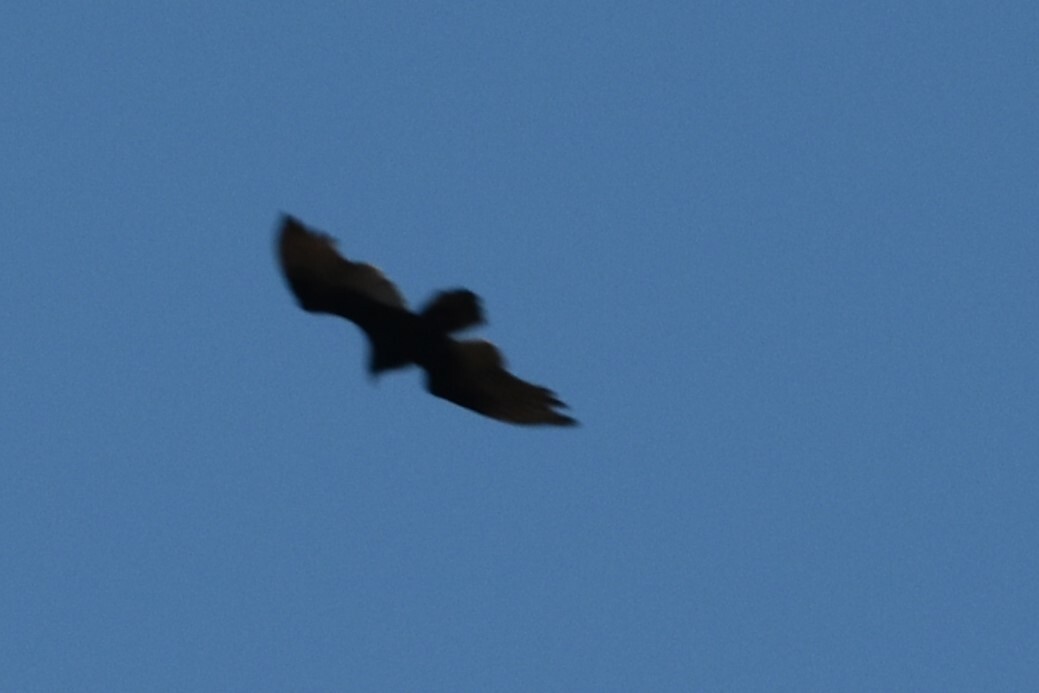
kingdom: Animalia
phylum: Chordata
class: Aves
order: Accipitriformes
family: Cathartidae
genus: Cathartes
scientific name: Cathartes aura
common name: Turkey vulture
